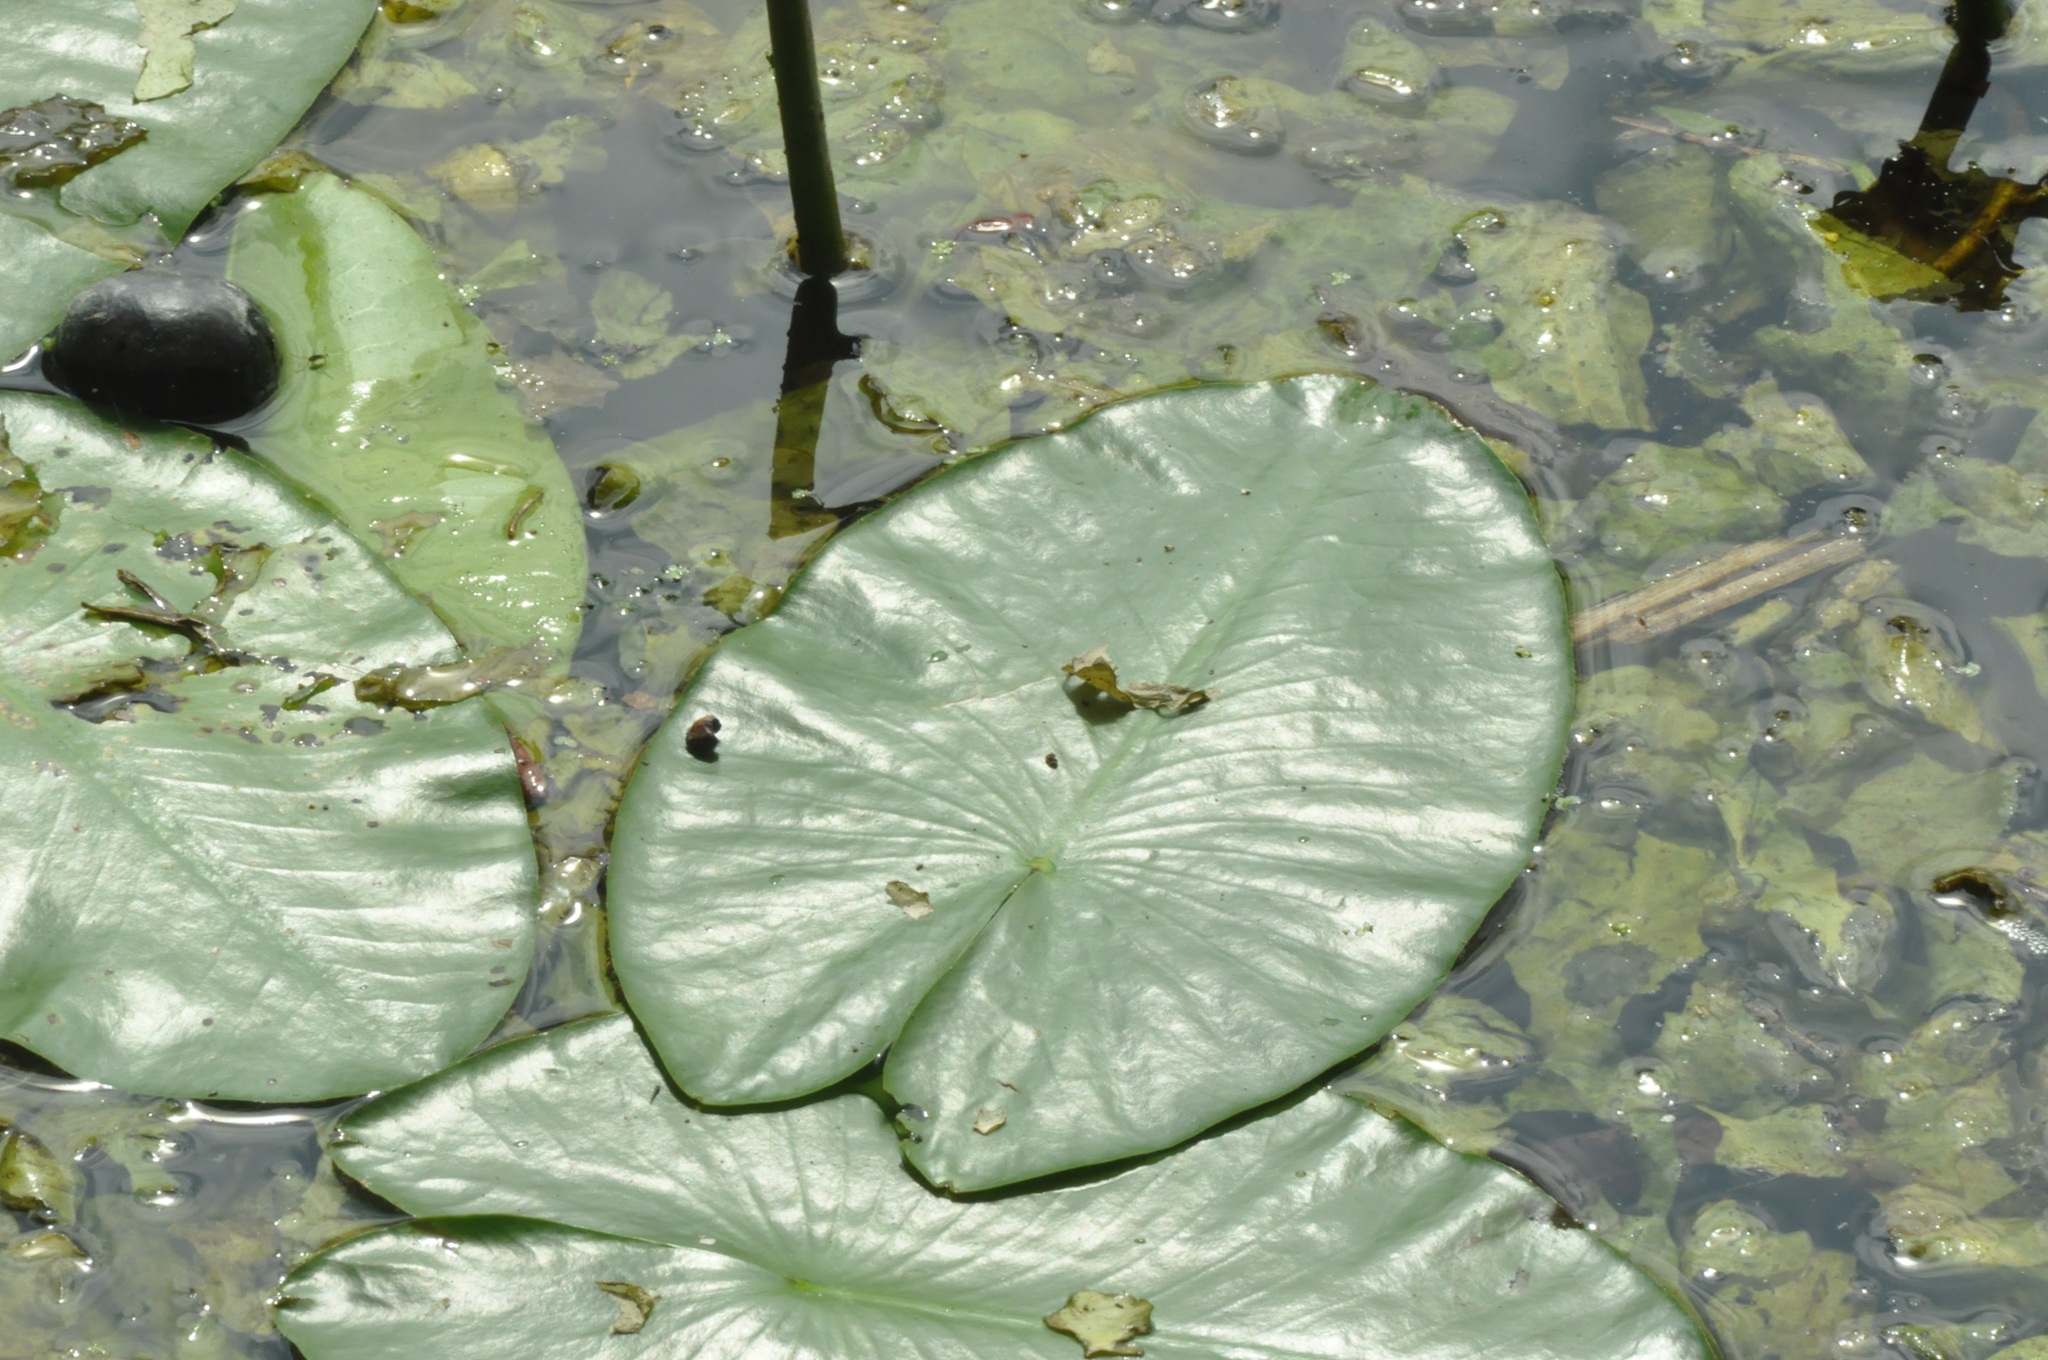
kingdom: Plantae
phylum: Tracheophyta
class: Magnoliopsida
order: Nymphaeales
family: Nymphaeaceae
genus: Nuphar
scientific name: Nuphar lutea
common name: Yellow water-lily
